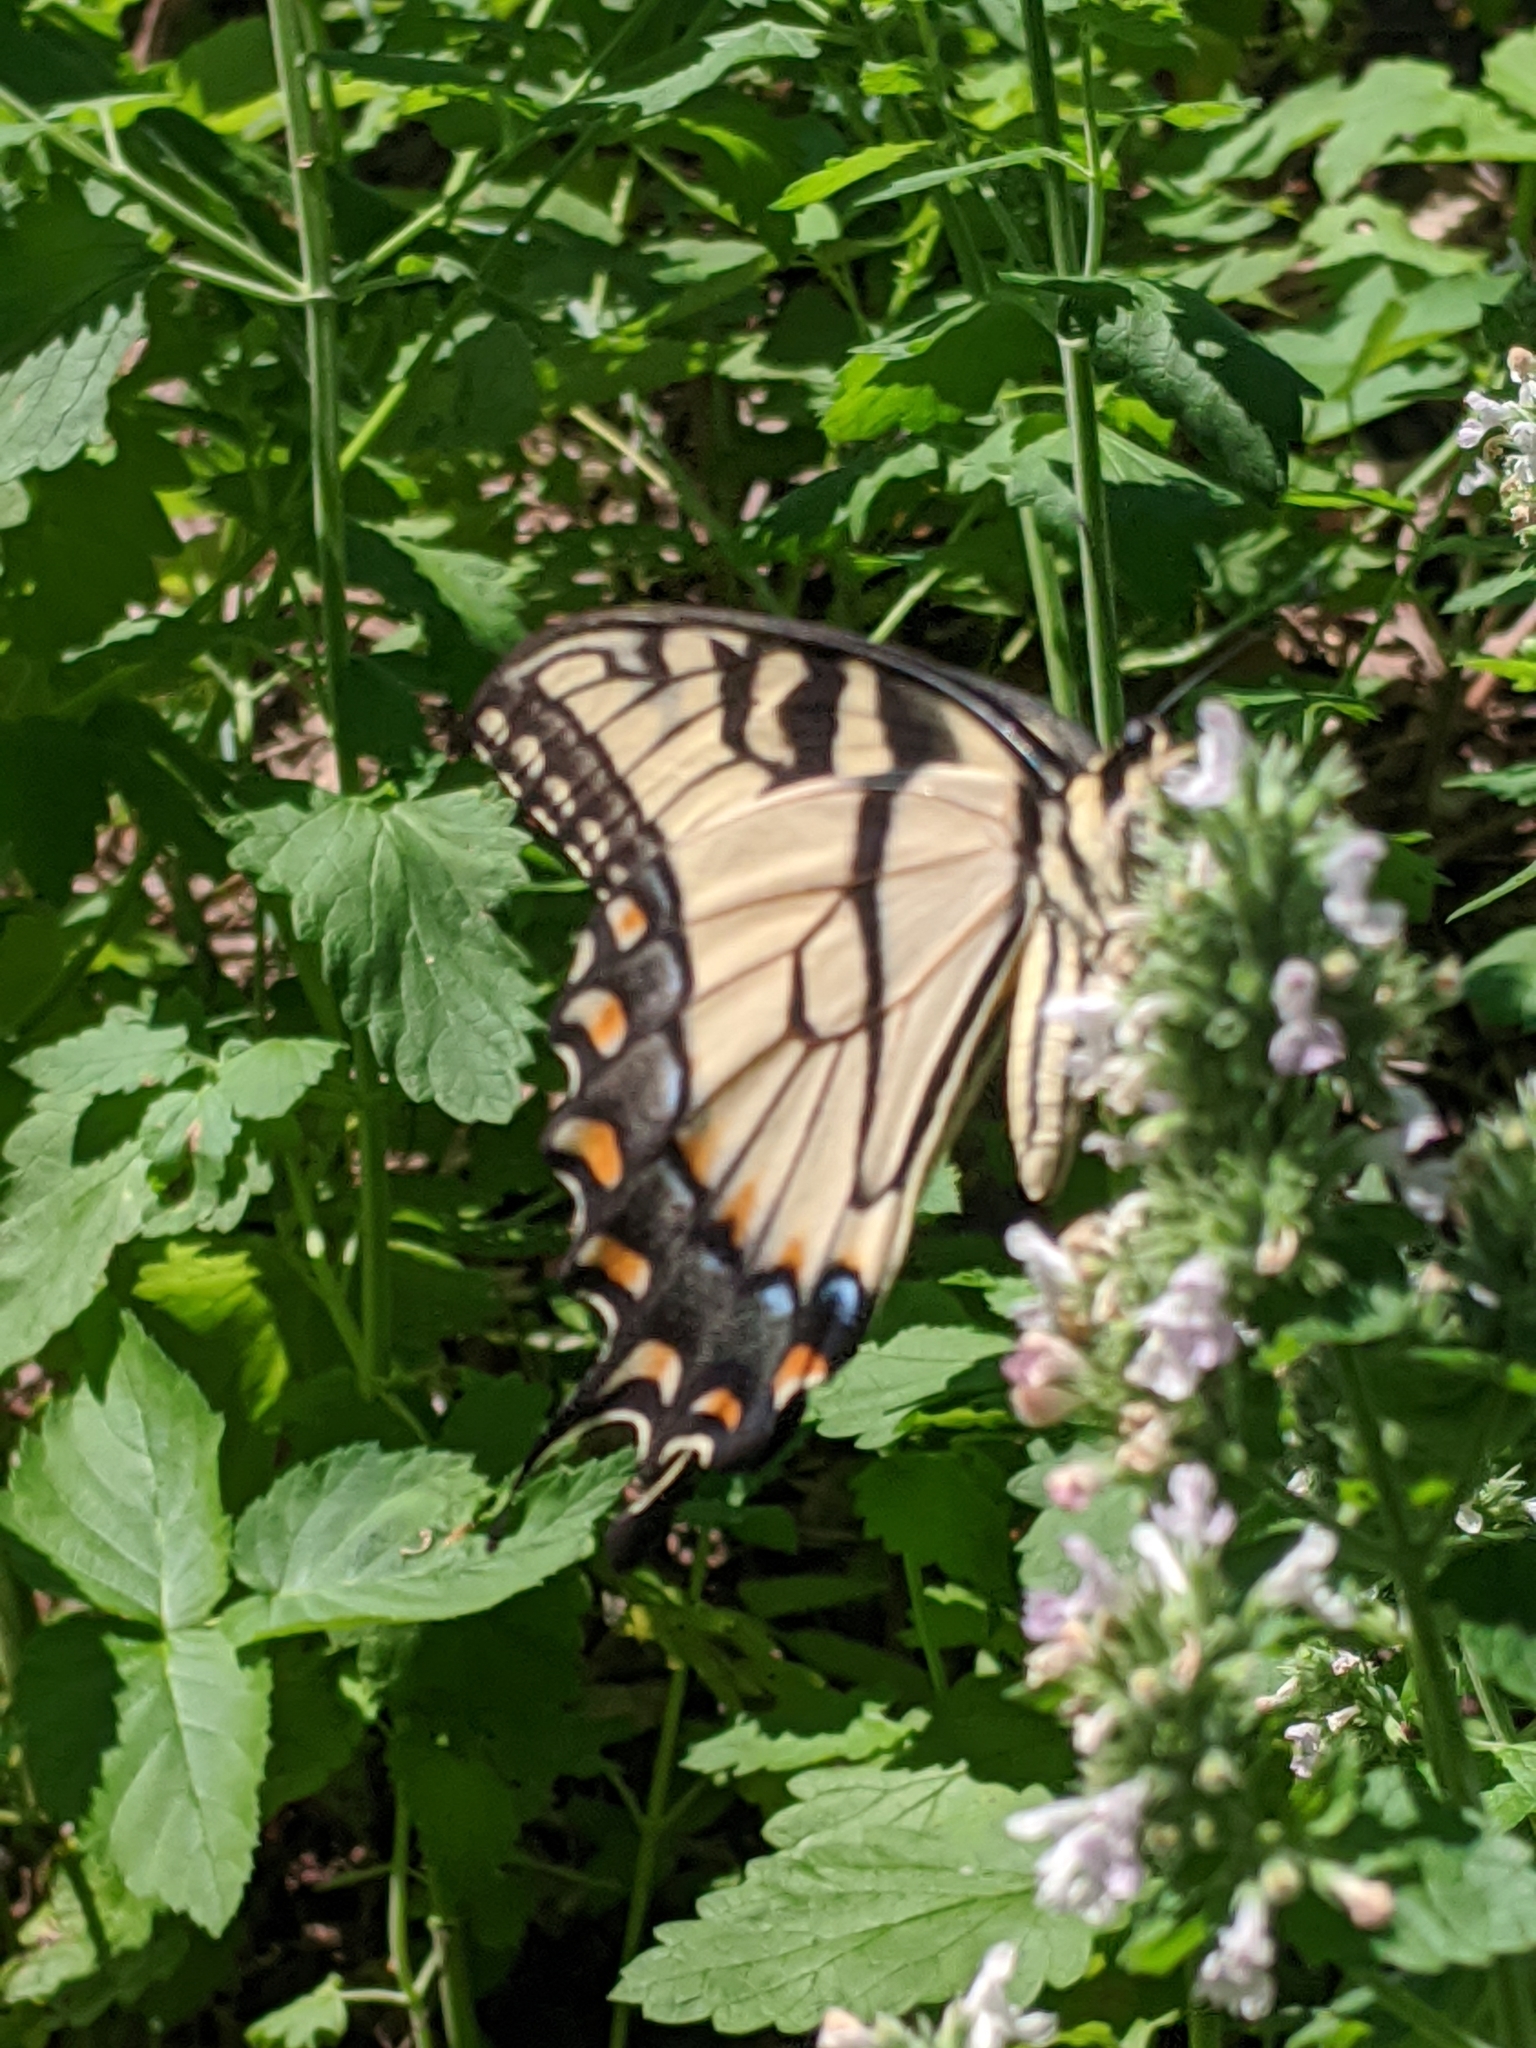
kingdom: Animalia
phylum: Arthropoda
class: Insecta
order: Lepidoptera
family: Papilionidae
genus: Papilio
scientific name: Papilio glaucus
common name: Tiger swallowtail
